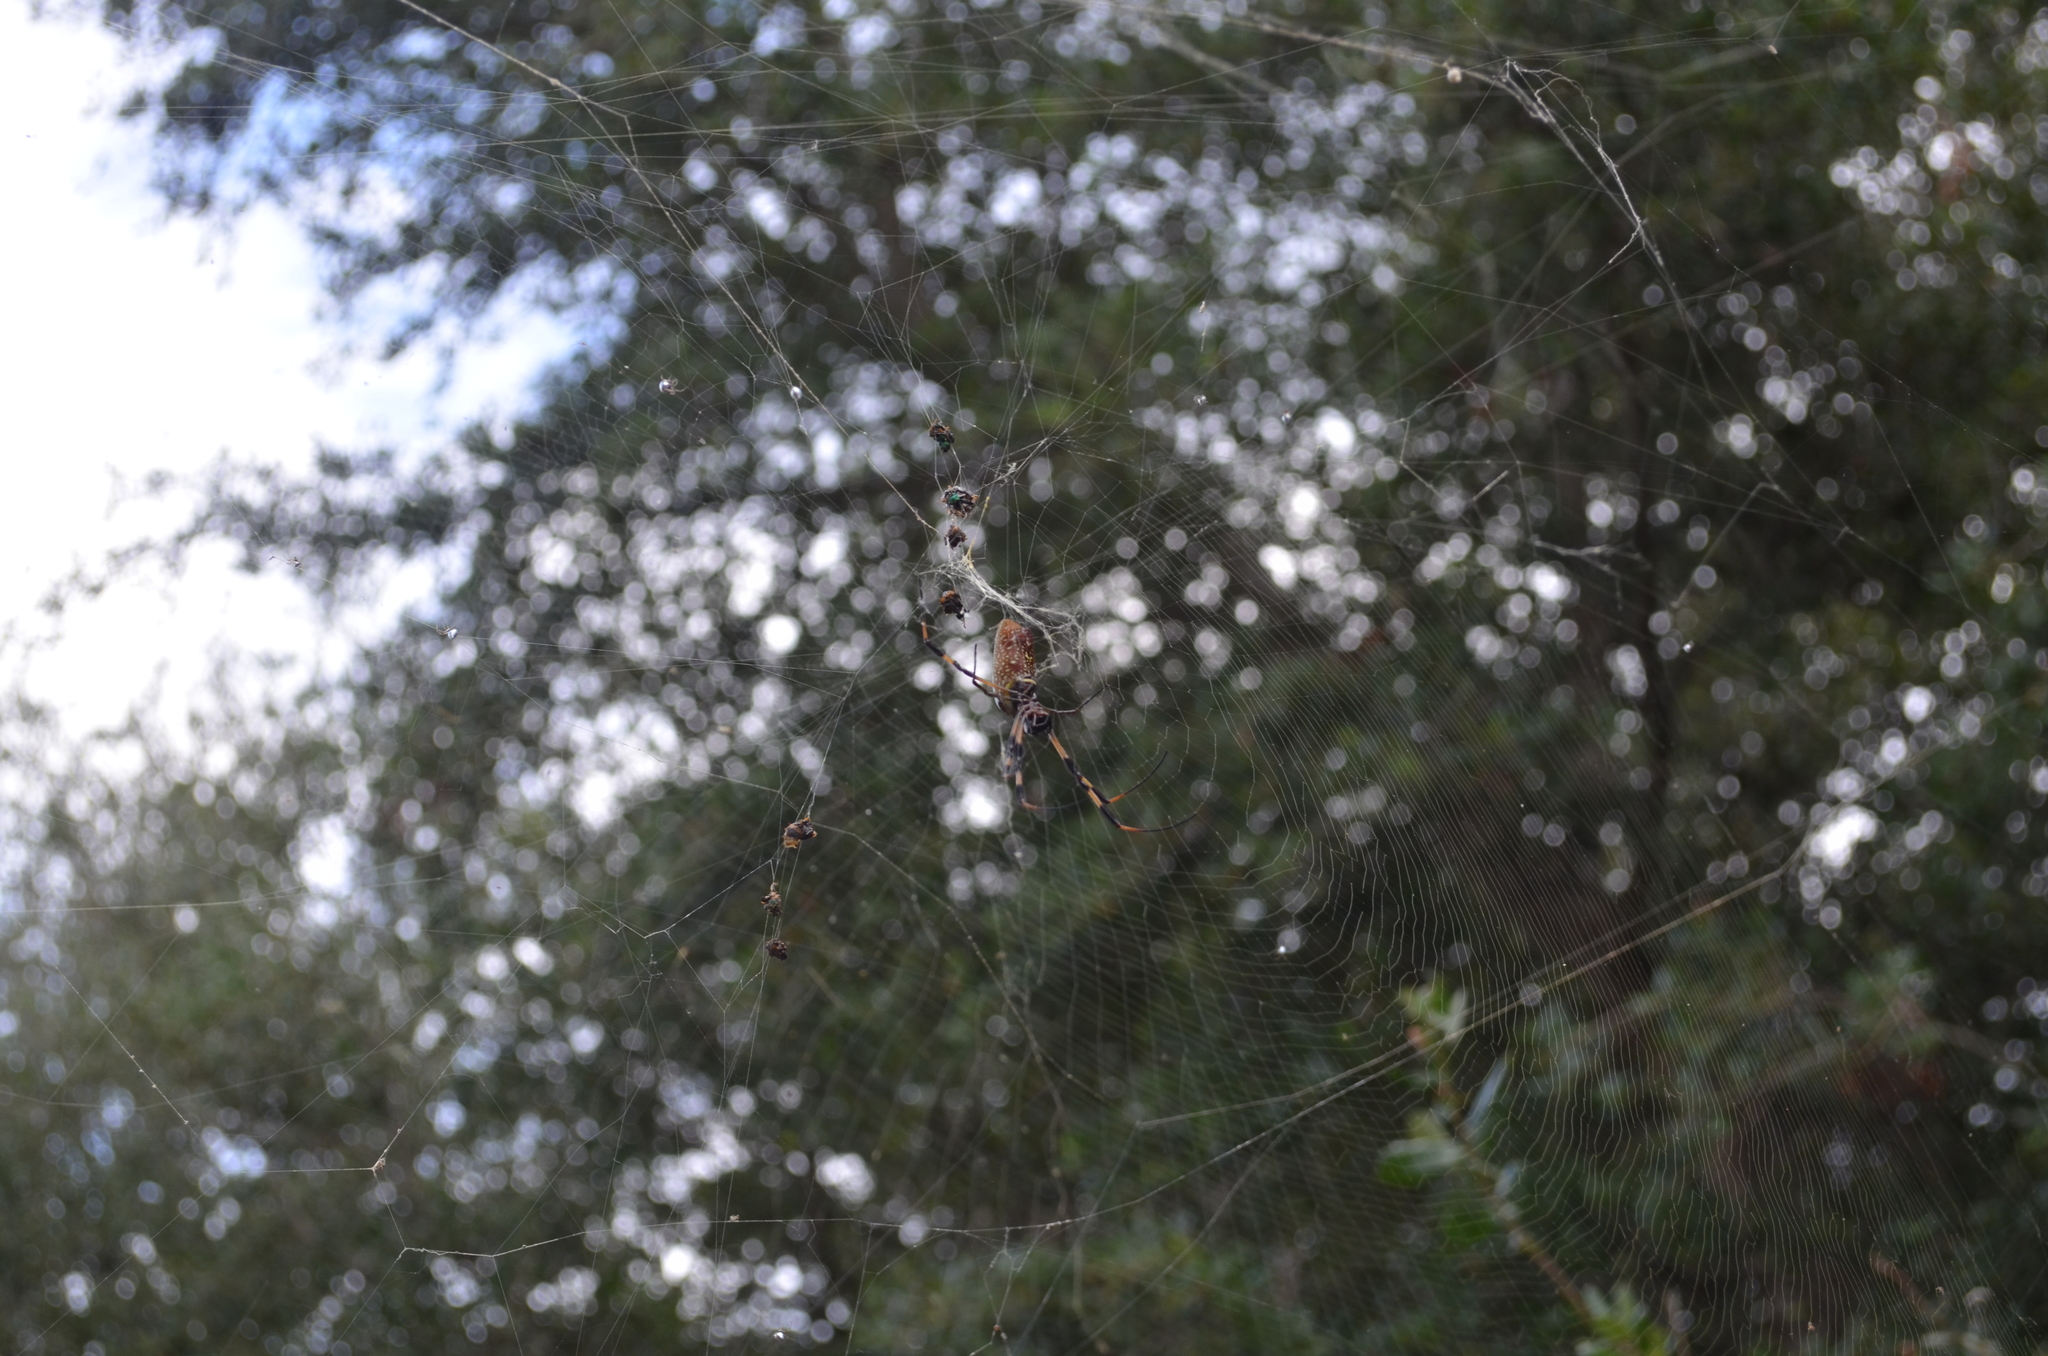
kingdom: Animalia
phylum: Arthropoda
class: Arachnida
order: Araneae
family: Araneidae
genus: Trichonephila
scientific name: Trichonephila clavipes
